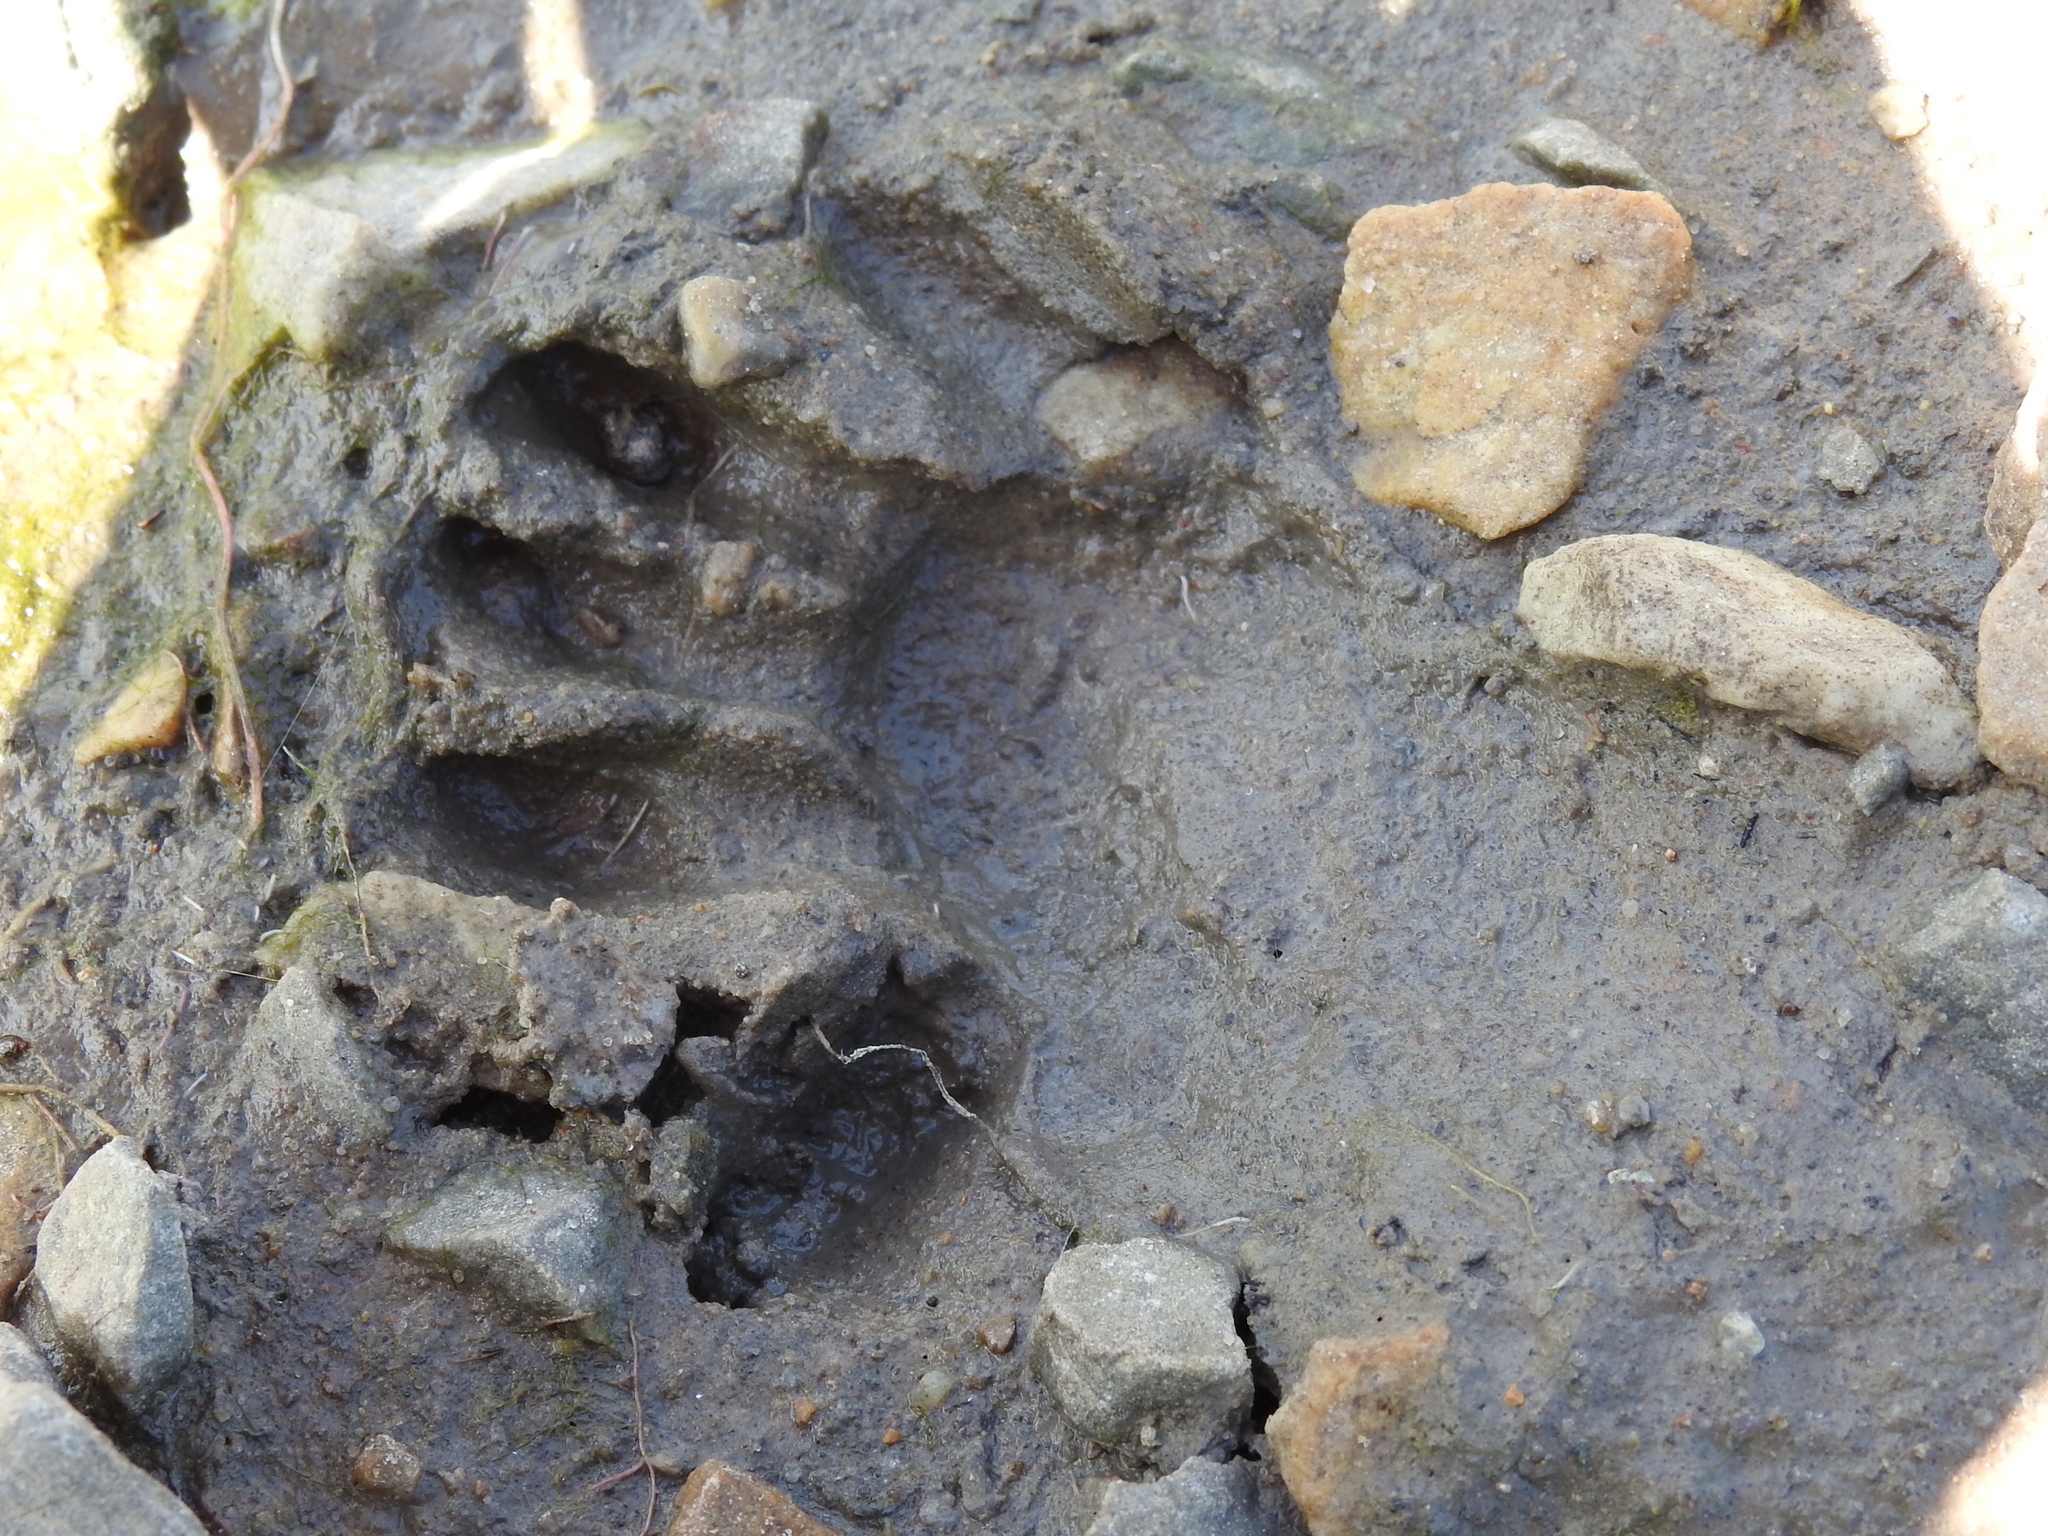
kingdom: Animalia
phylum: Chordata
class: Mammalia
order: Carnivora
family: Procyonidae
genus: Procyon
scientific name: Procyon lotor
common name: Raccoon
